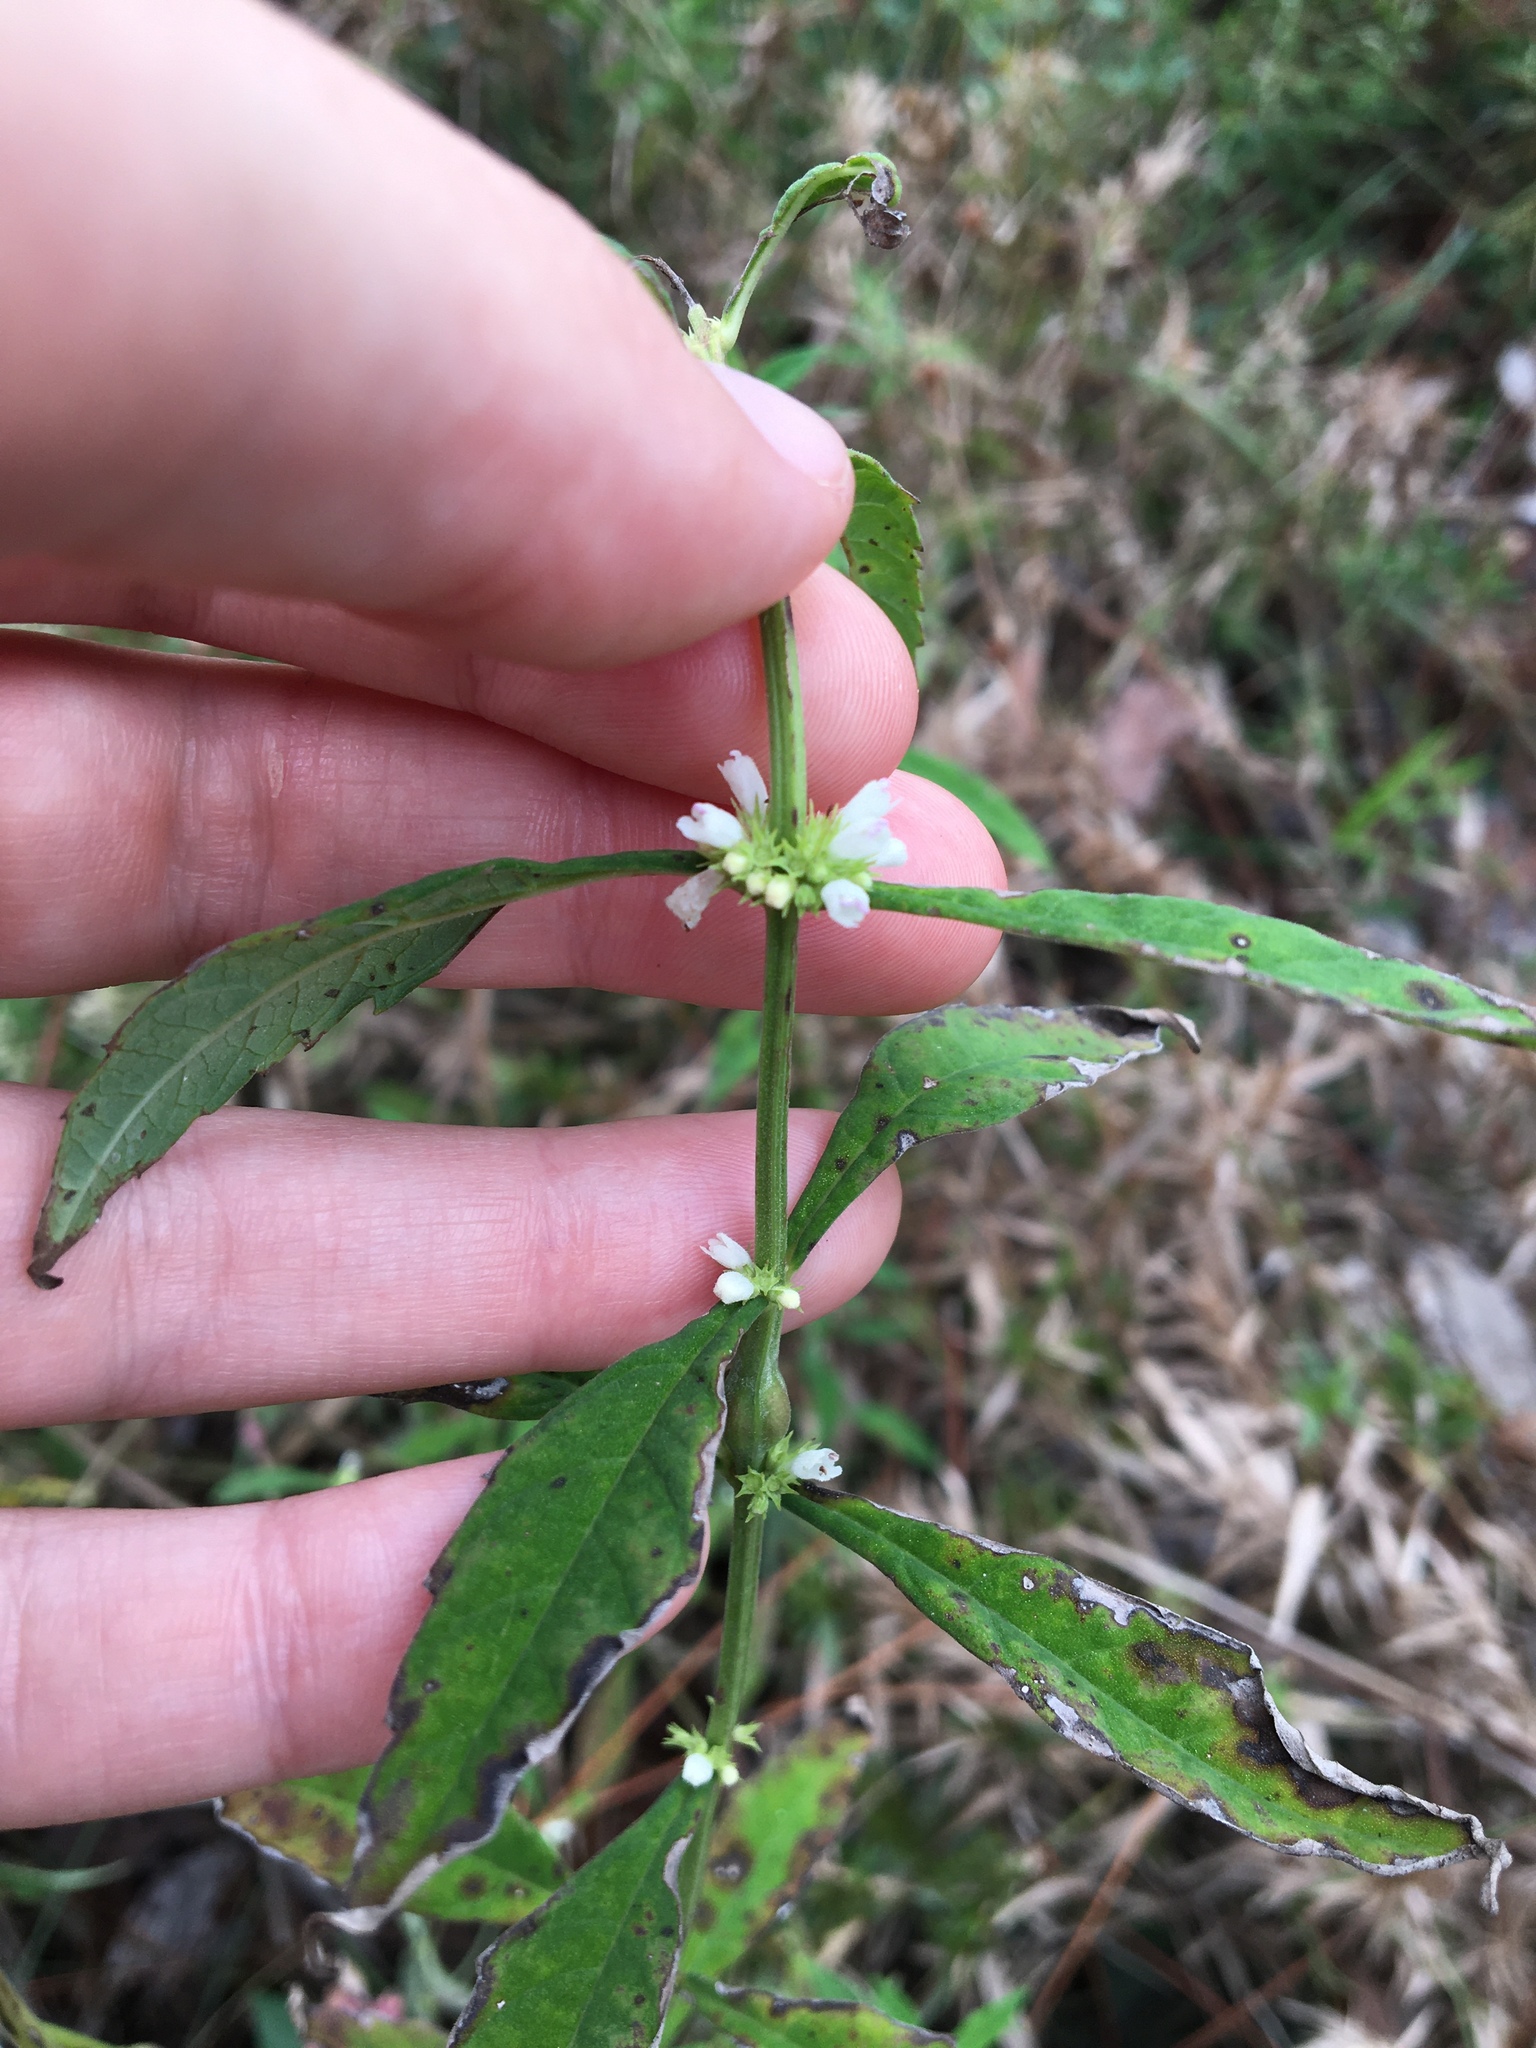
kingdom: Plantae
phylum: Tracheophyta
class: Magnoliopsida
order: Lamiales
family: Lamiaceae
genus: Lycopus
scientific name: Lycopus rubellus
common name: Stalked bugleweed
